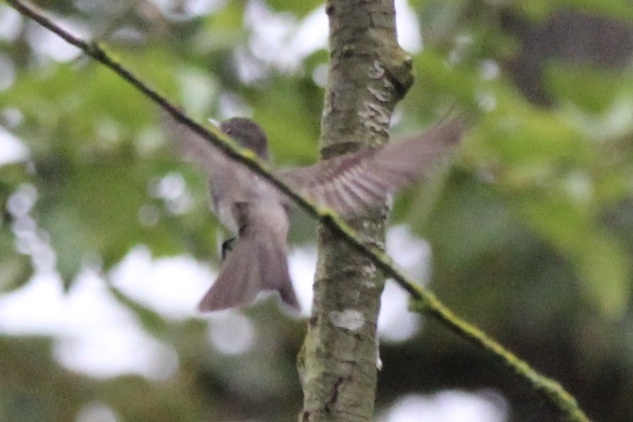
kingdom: Animalia
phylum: Chordata
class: Aves
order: Passeriformes
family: Tyrannidae
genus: Contopus
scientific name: Contopus sordidulus
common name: Western wood-pewee
